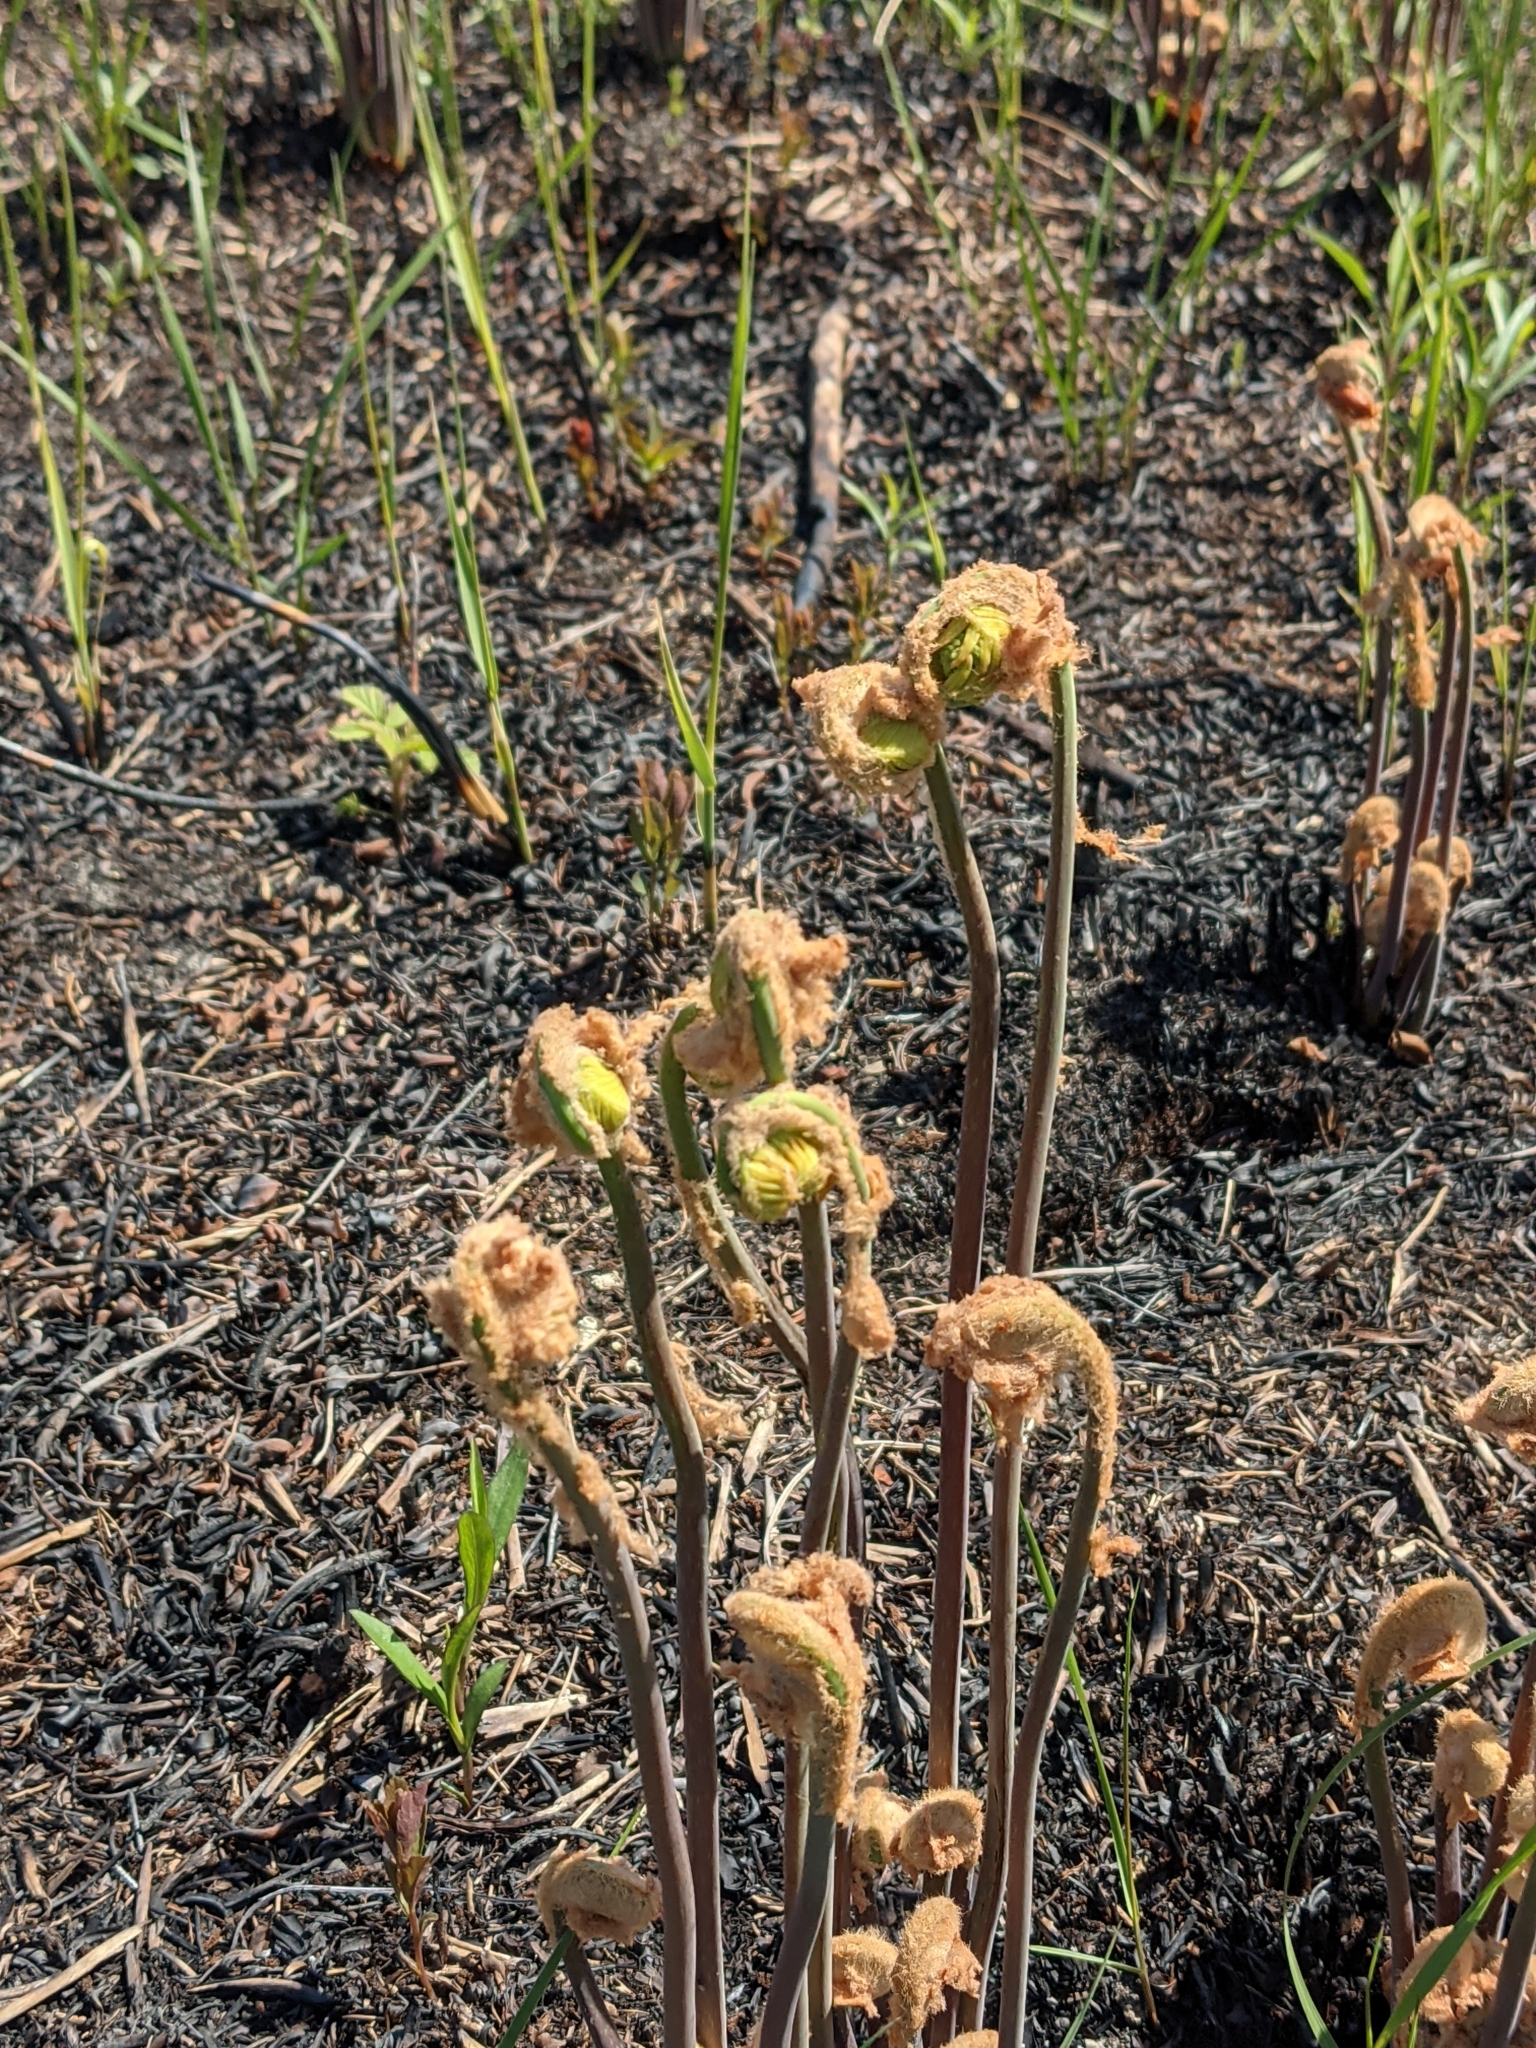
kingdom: Plantae
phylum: Tracheophyta
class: Polypodiopsida
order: Osmundales
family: Osmundaceae
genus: Osmunda
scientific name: Osmunda spectabilis
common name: American royal fern
